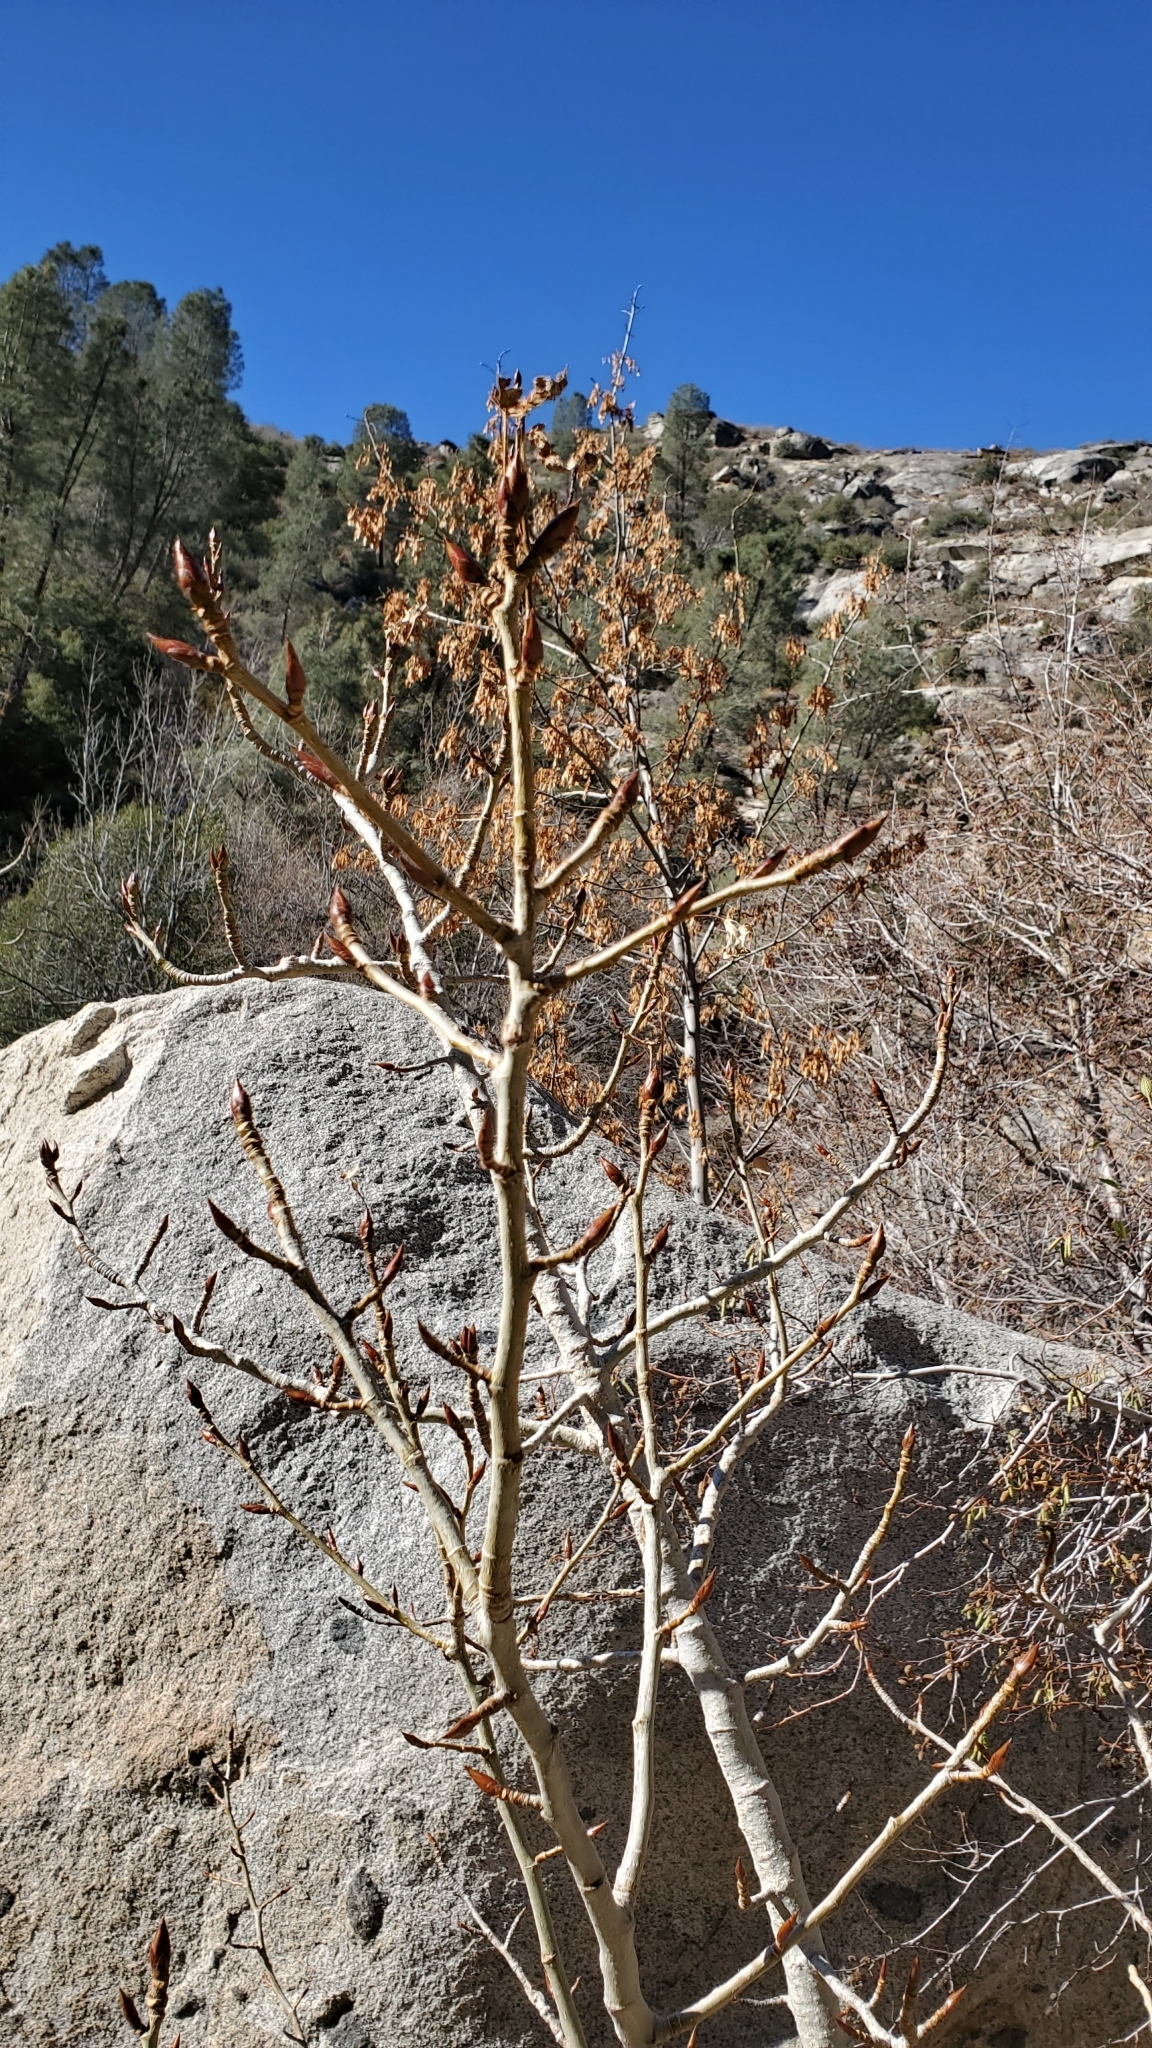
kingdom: Plantae
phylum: Tracheophyta
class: Magnoliopsida
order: Sapindales
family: Sapindaceae
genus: Aesculus
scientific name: Aesculus californica
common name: California buckeye
